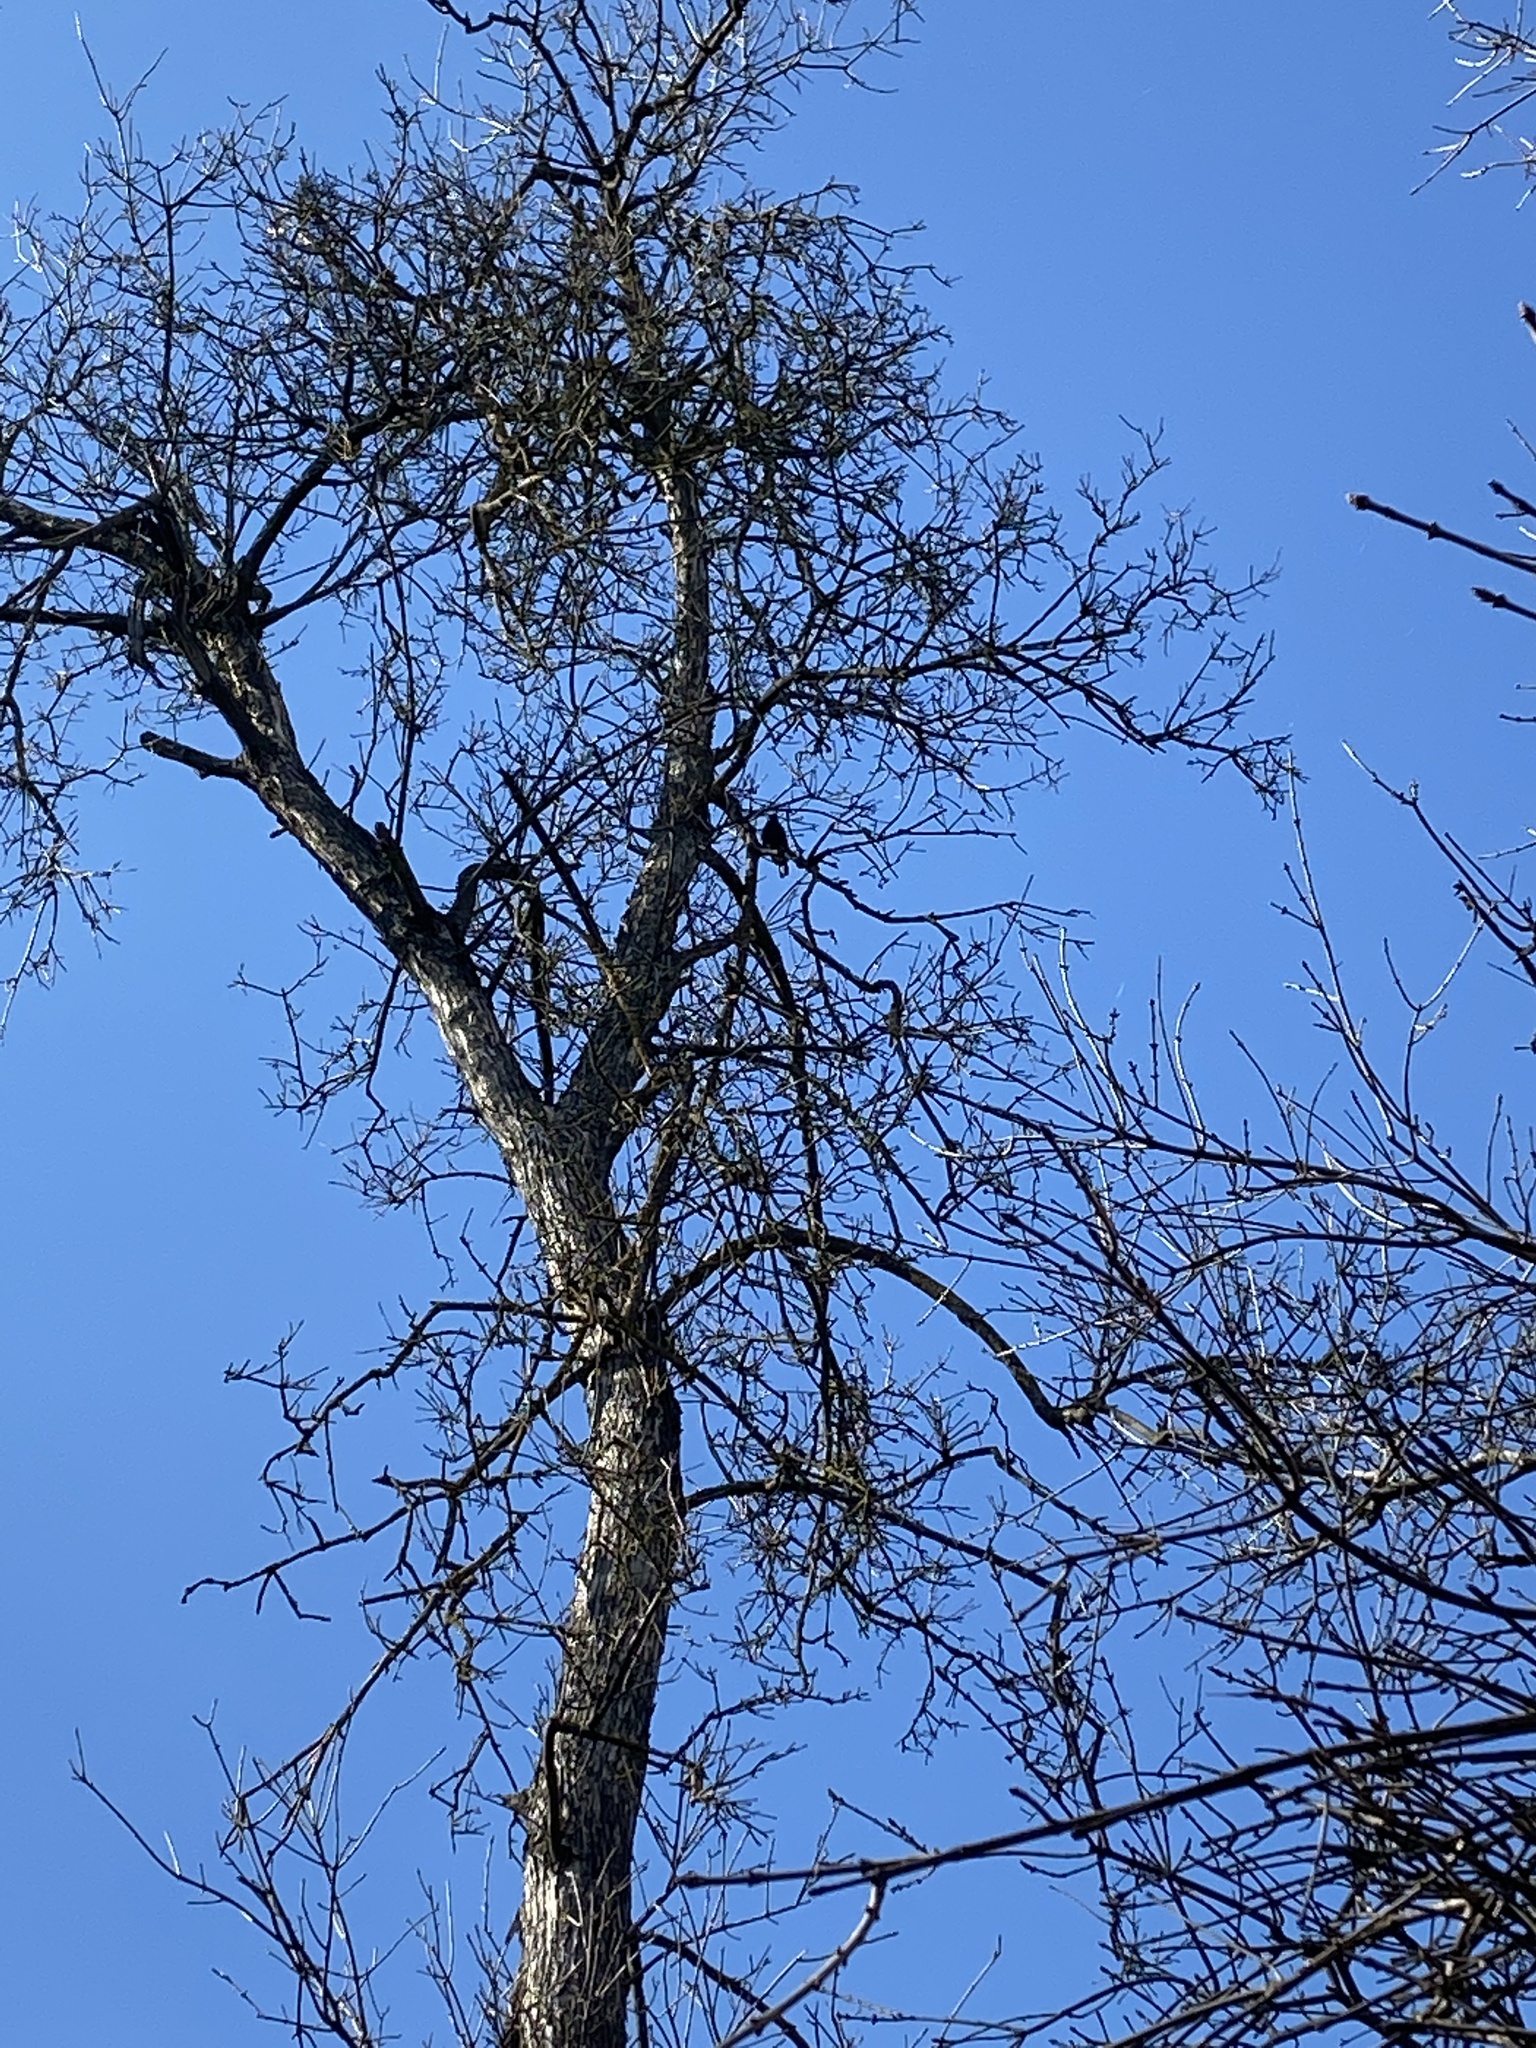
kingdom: Animalia
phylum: Chordata
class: Aves
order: Passeriformes
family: Turdidae
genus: Turdus
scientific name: Turdus merula
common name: Common blackbird
